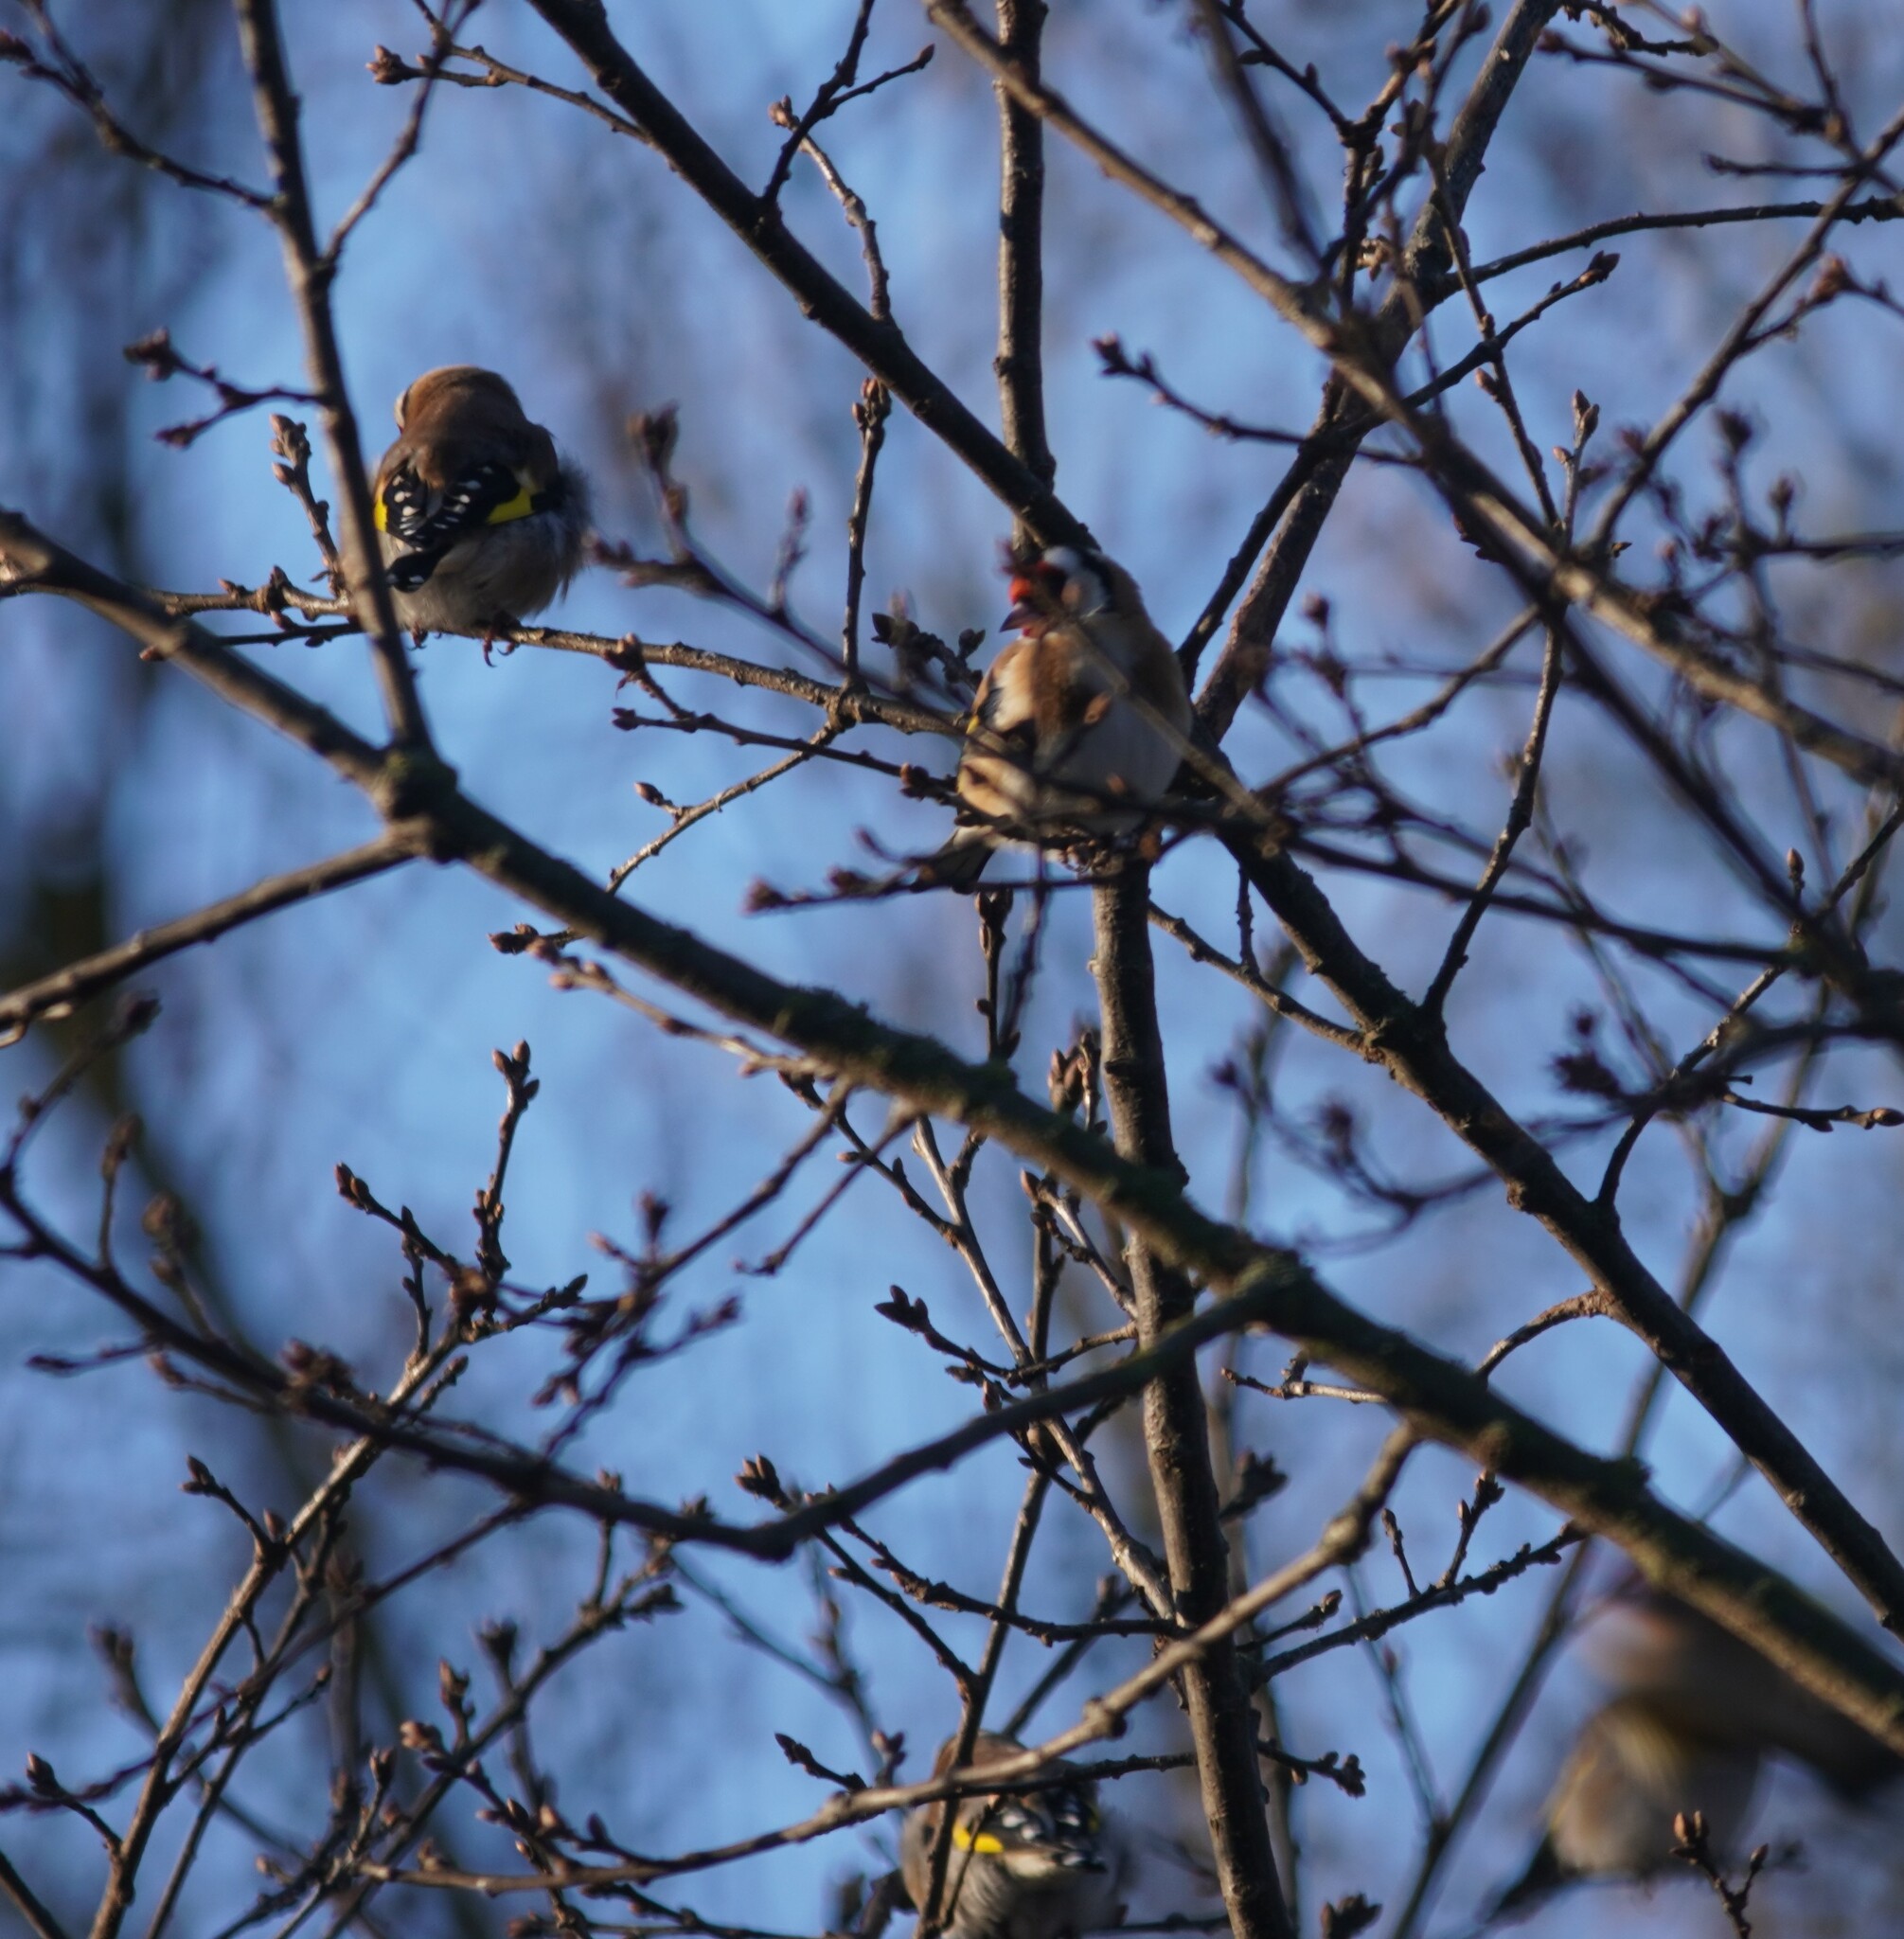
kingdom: Animalia
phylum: Chordata
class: Aves
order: Passeriformes
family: Fringillidae
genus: Carduelis
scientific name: Carduelis carduelis
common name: European goldfinch
